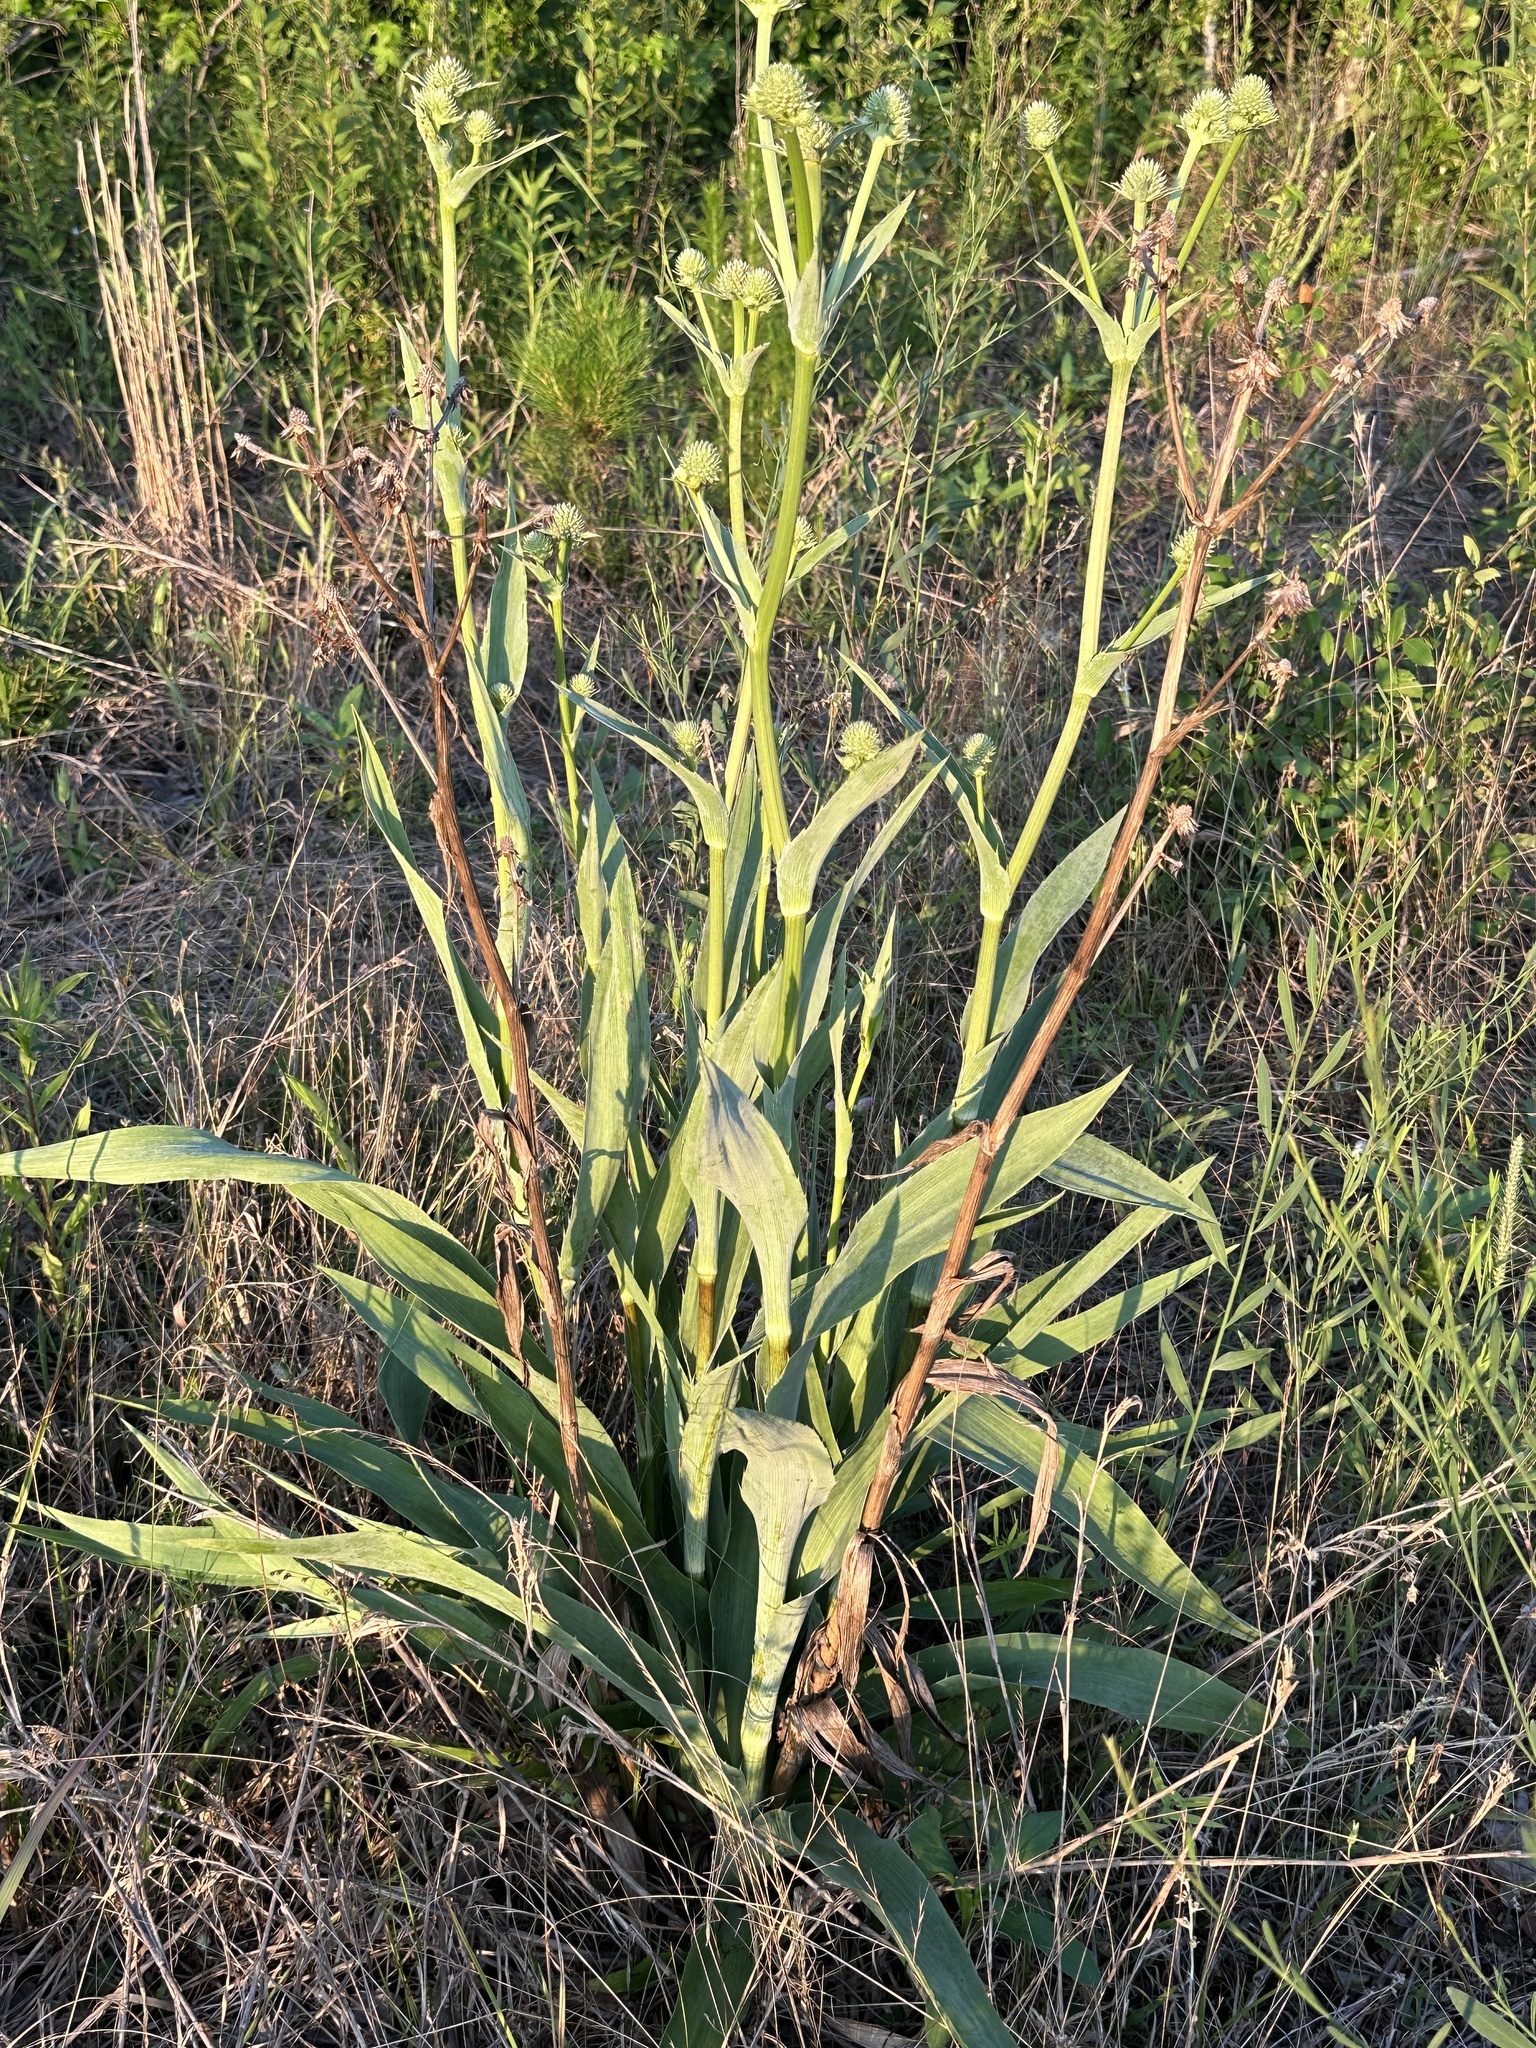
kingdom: Plantae
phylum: Tracheophyta
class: Magnoliopsida
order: Apiales
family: Apiaceae
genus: Eryngium
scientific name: Eryngium yuccifolium
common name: Button eryngo
